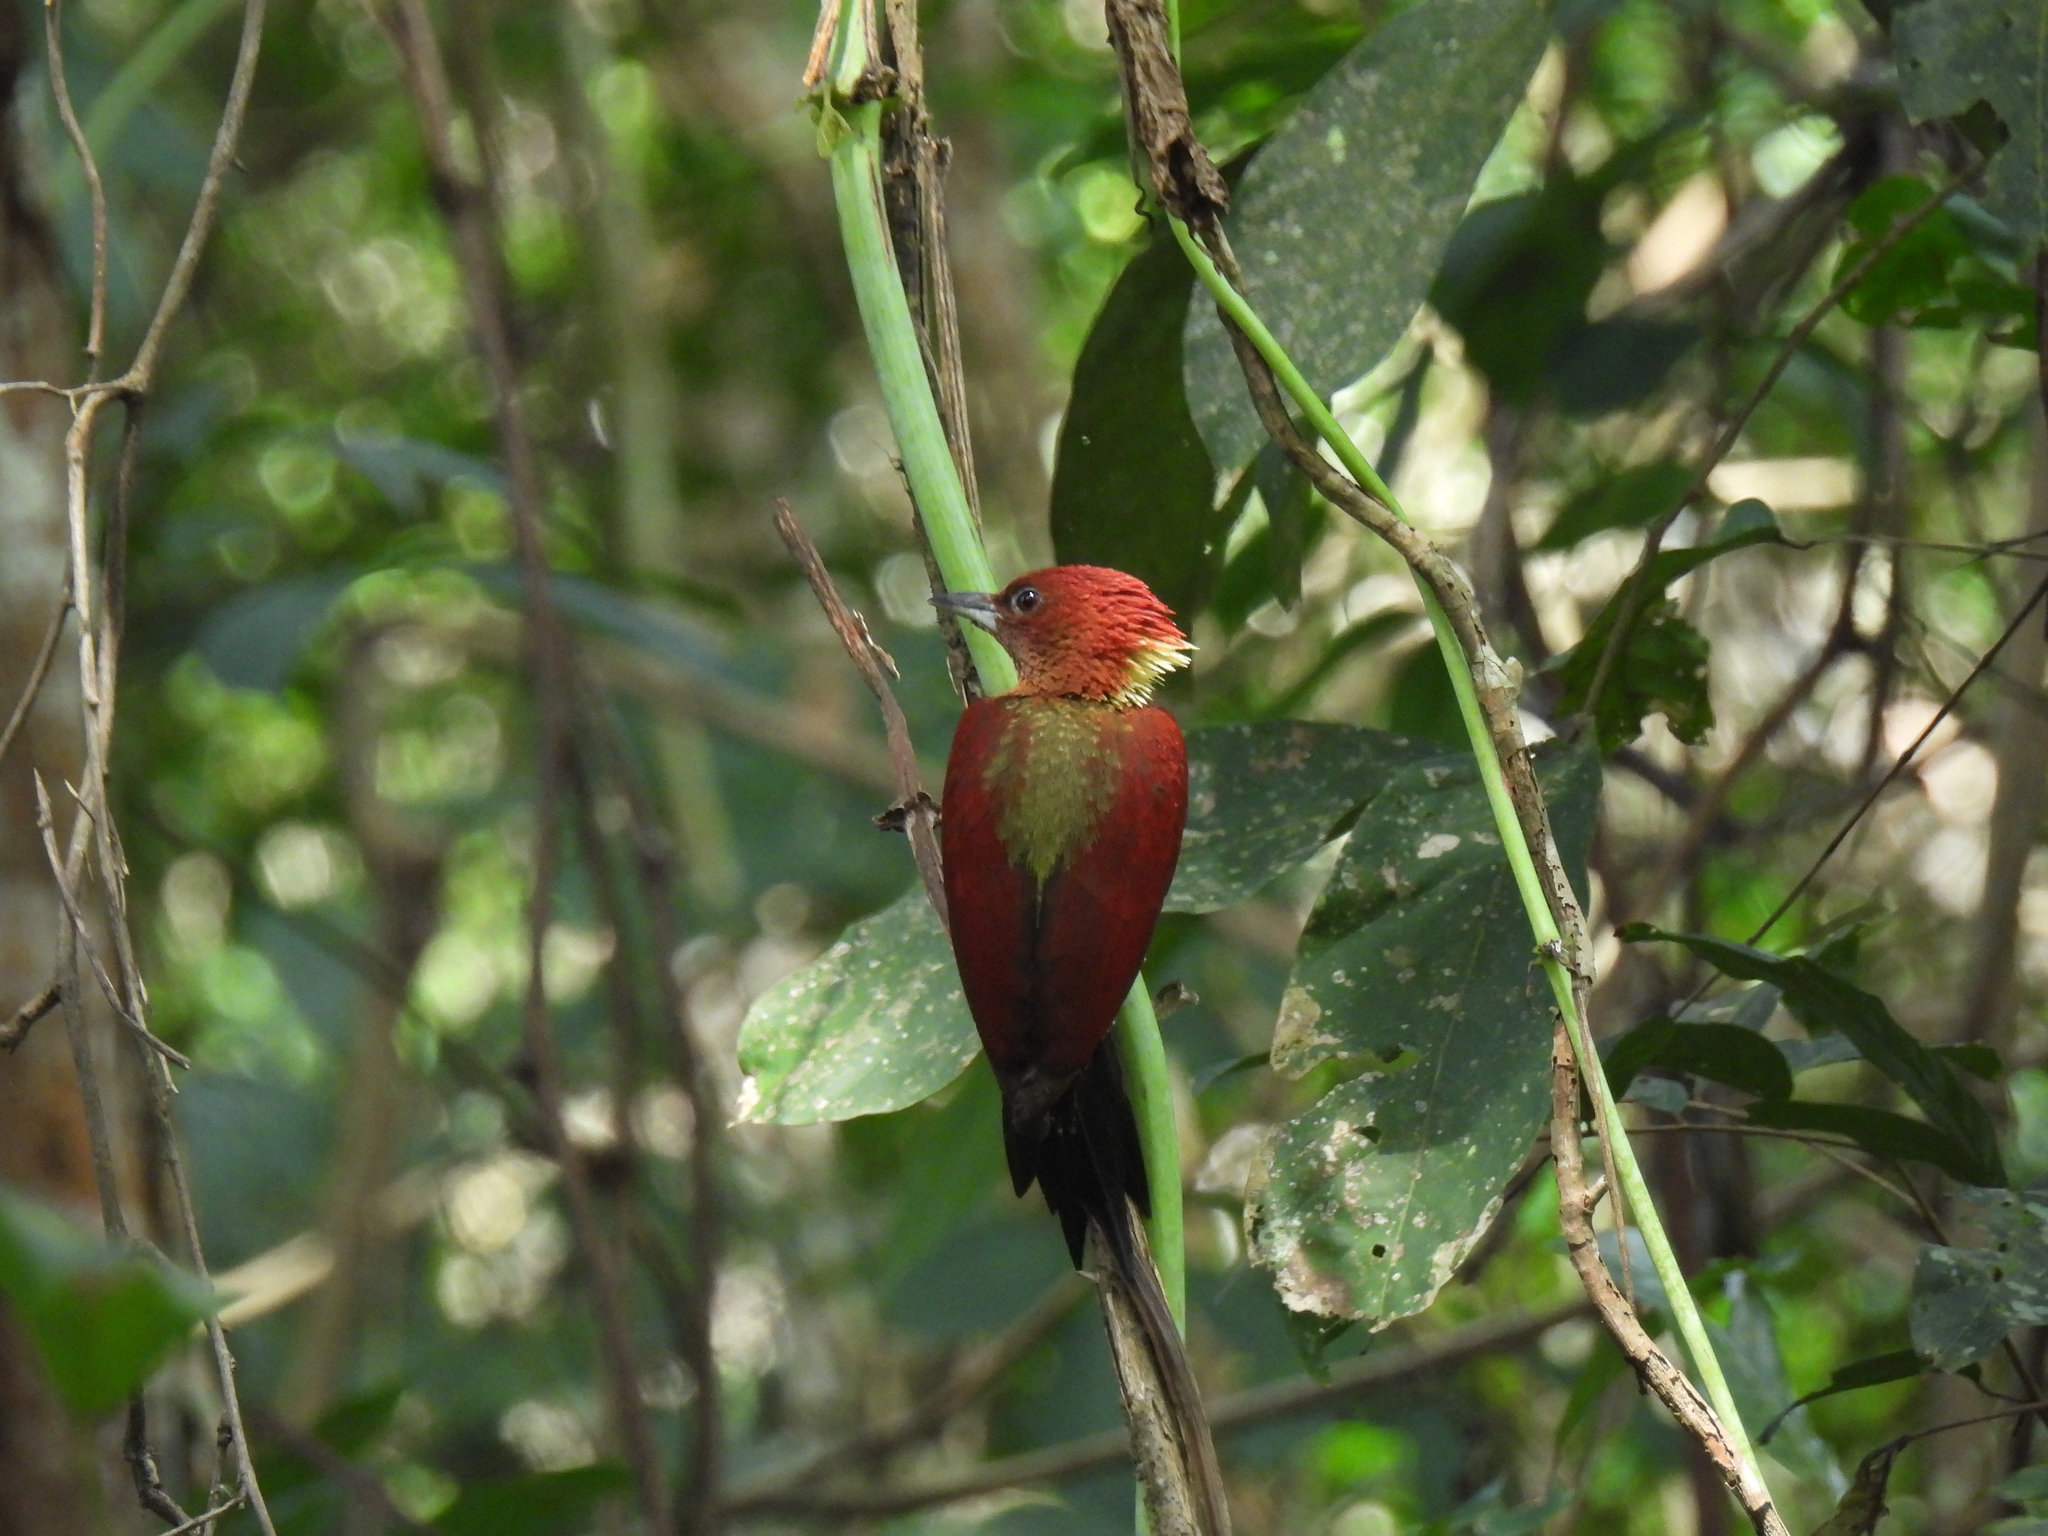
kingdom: Animalia
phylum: Chordata
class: Aves
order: Piciformes
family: Picidae
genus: Chrysophlegma
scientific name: Chrysophlegma miniaceum
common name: Banded woodpecker
